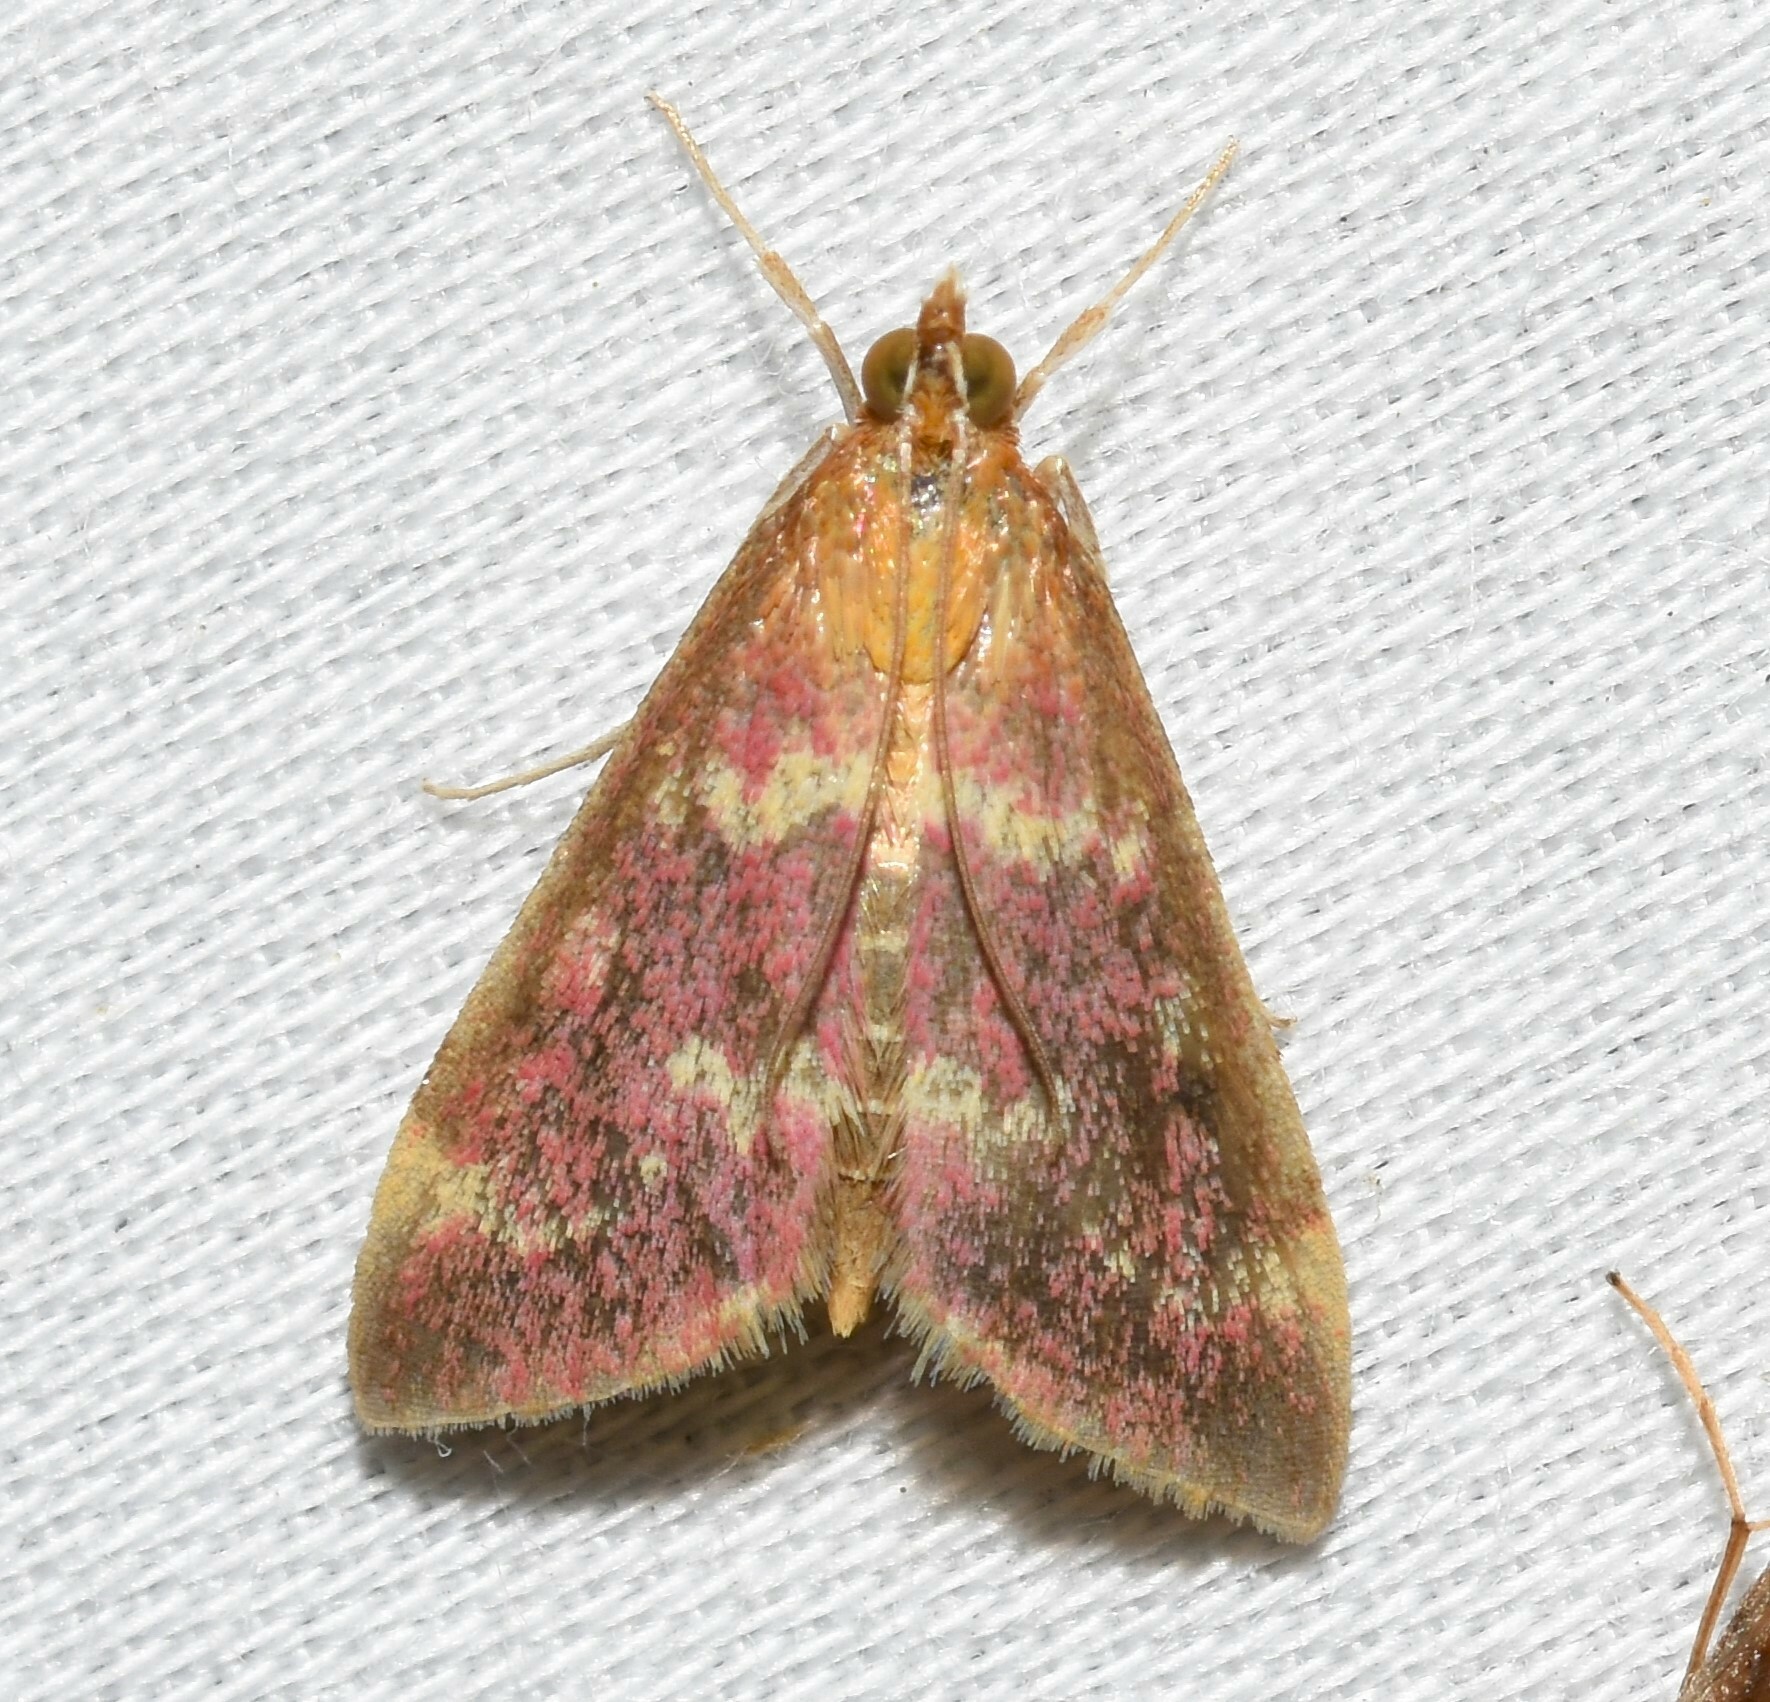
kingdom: Animalia
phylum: Arthropoda
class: Insecta
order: Lepidoptera
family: Crambidae
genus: Pyrausta
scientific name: Pyrausta signatalis
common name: Raspberry pyrausta moth
